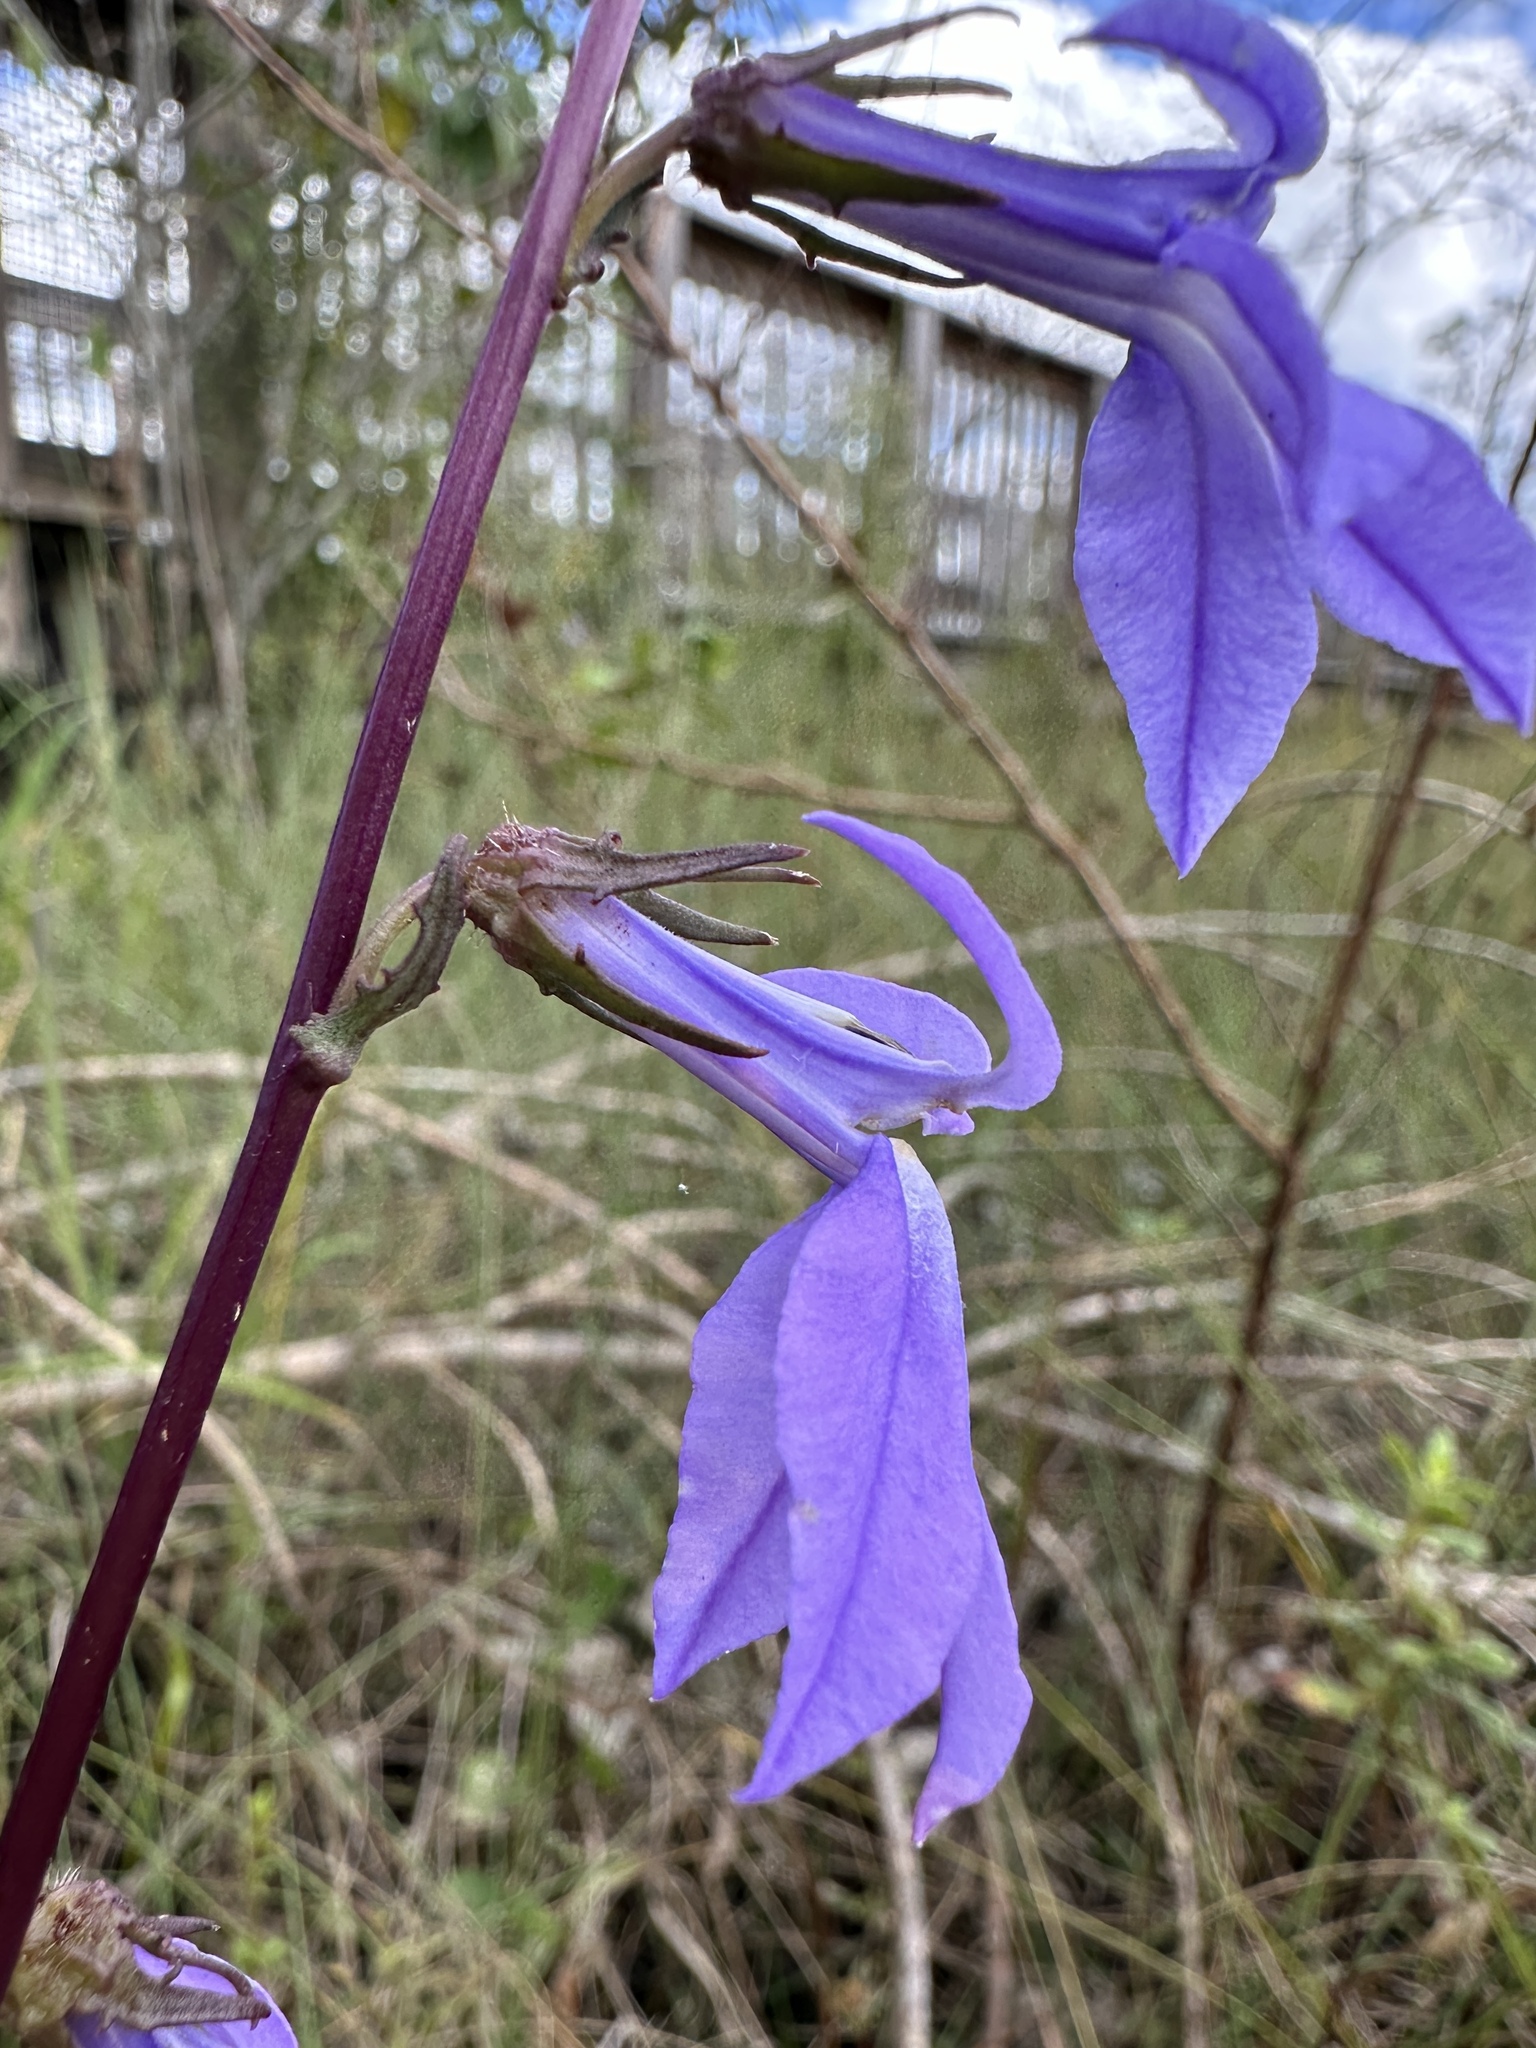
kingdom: Plantae
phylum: Tracheophyta
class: Magnoliopsida
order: Asterales
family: Campanulaceae
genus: Lobelia
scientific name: Lobelia glandulosa
